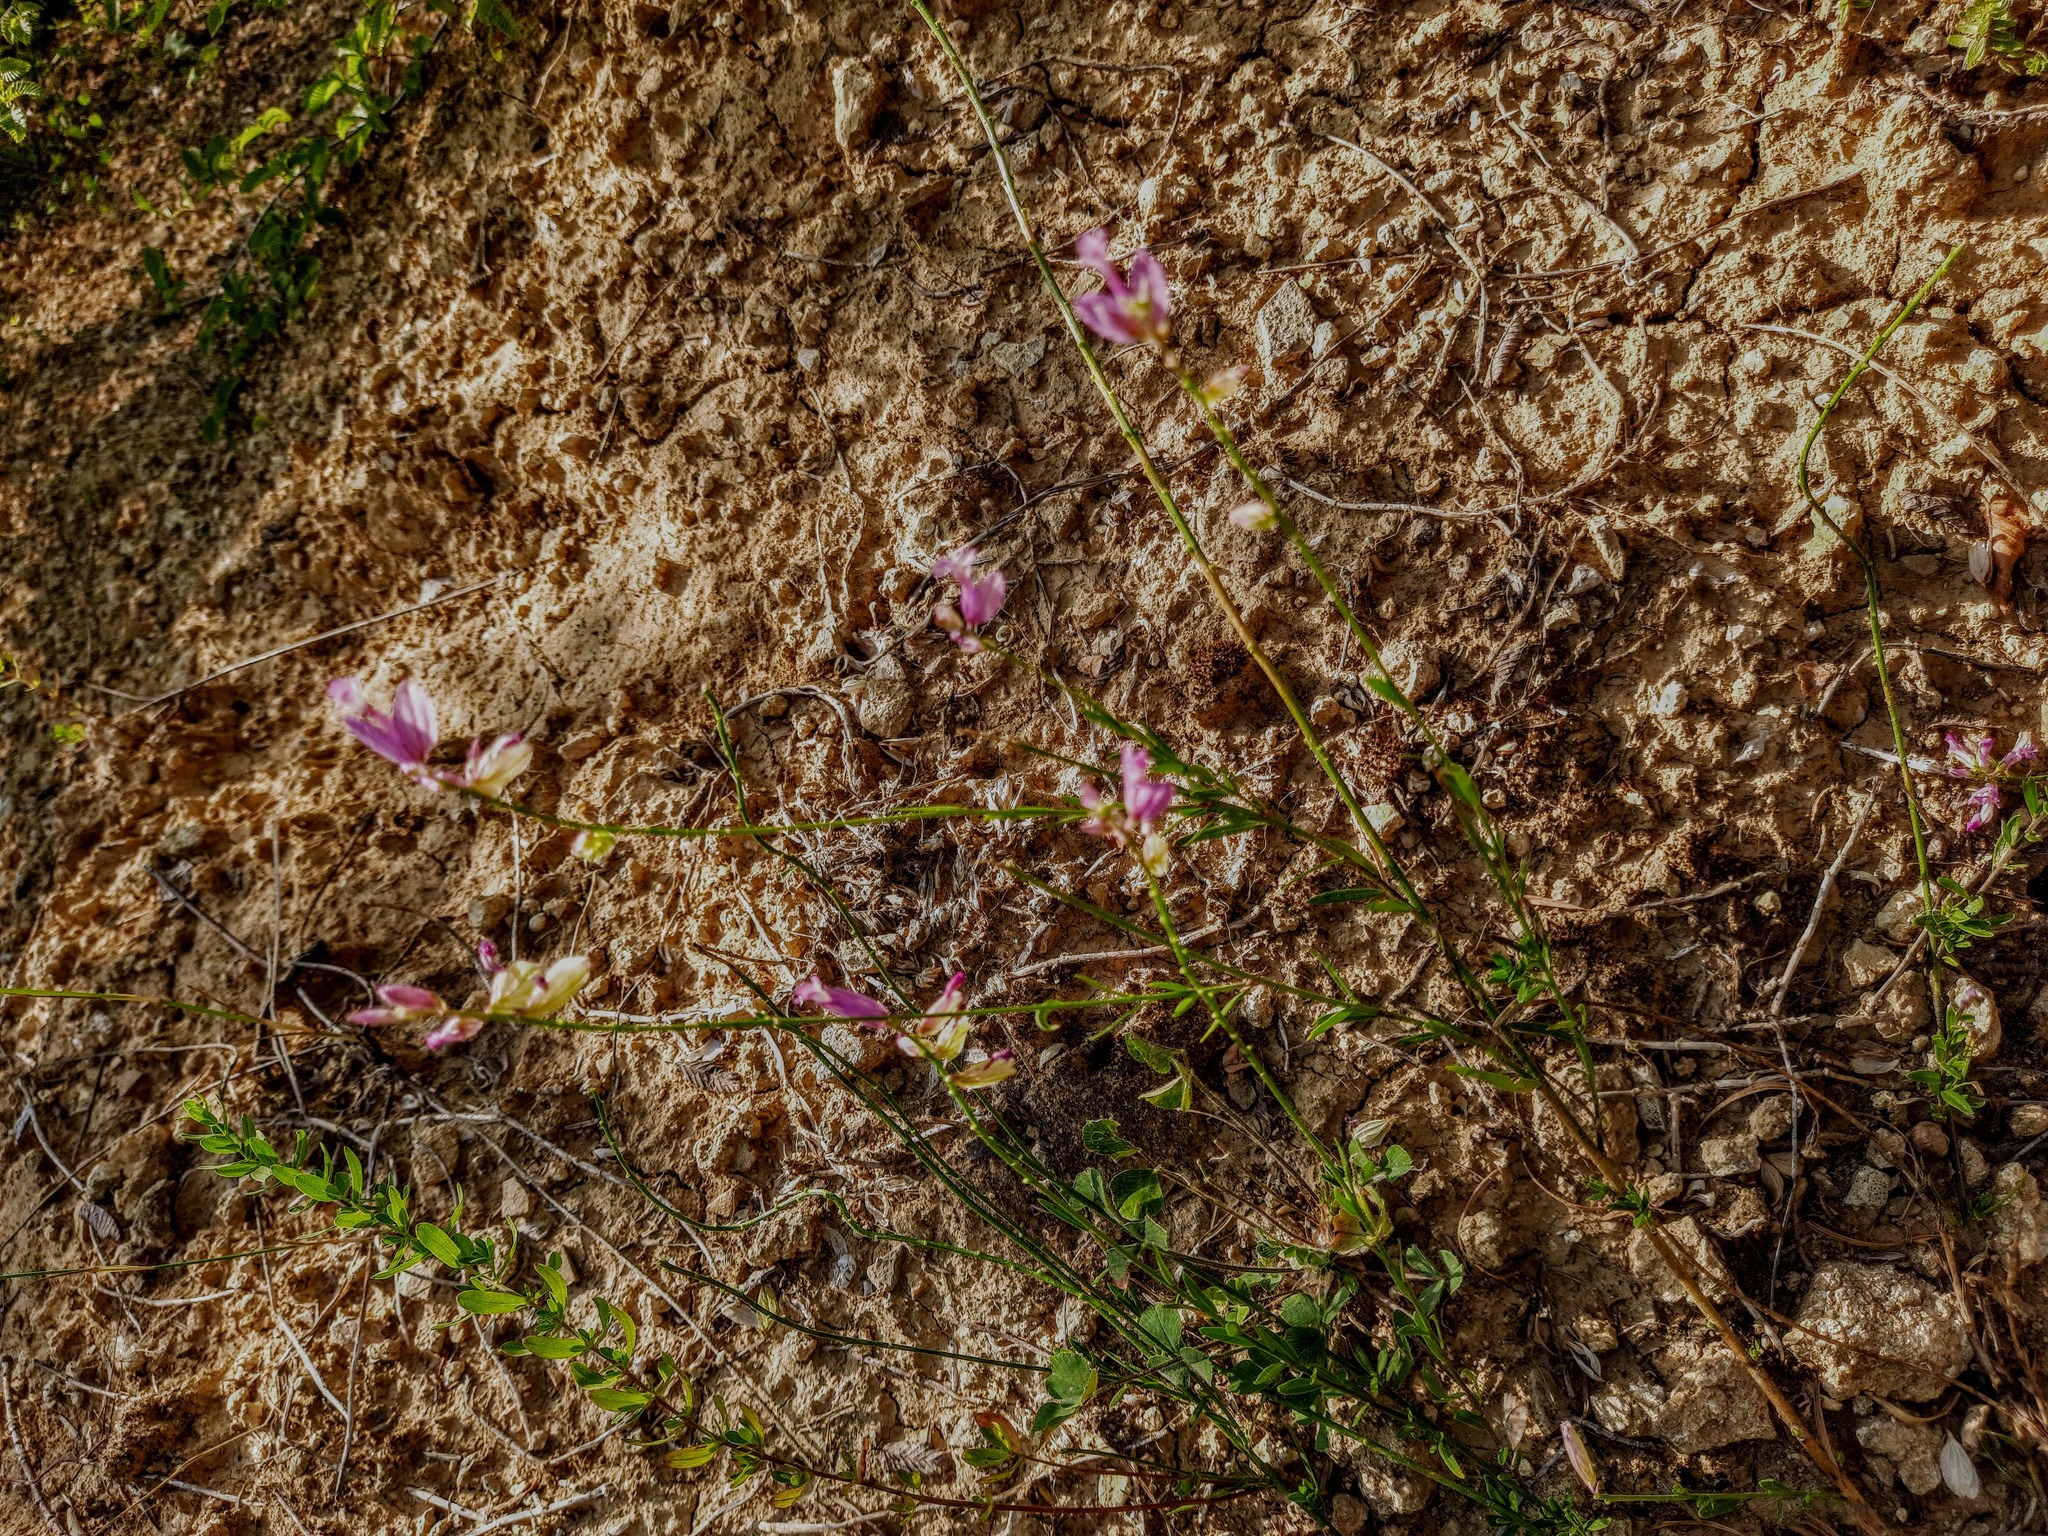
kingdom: Plantae
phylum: Tracheophyta
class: Magnoliopsida
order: Fabales
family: Polygalaceae
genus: Polygala
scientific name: Polygala major
